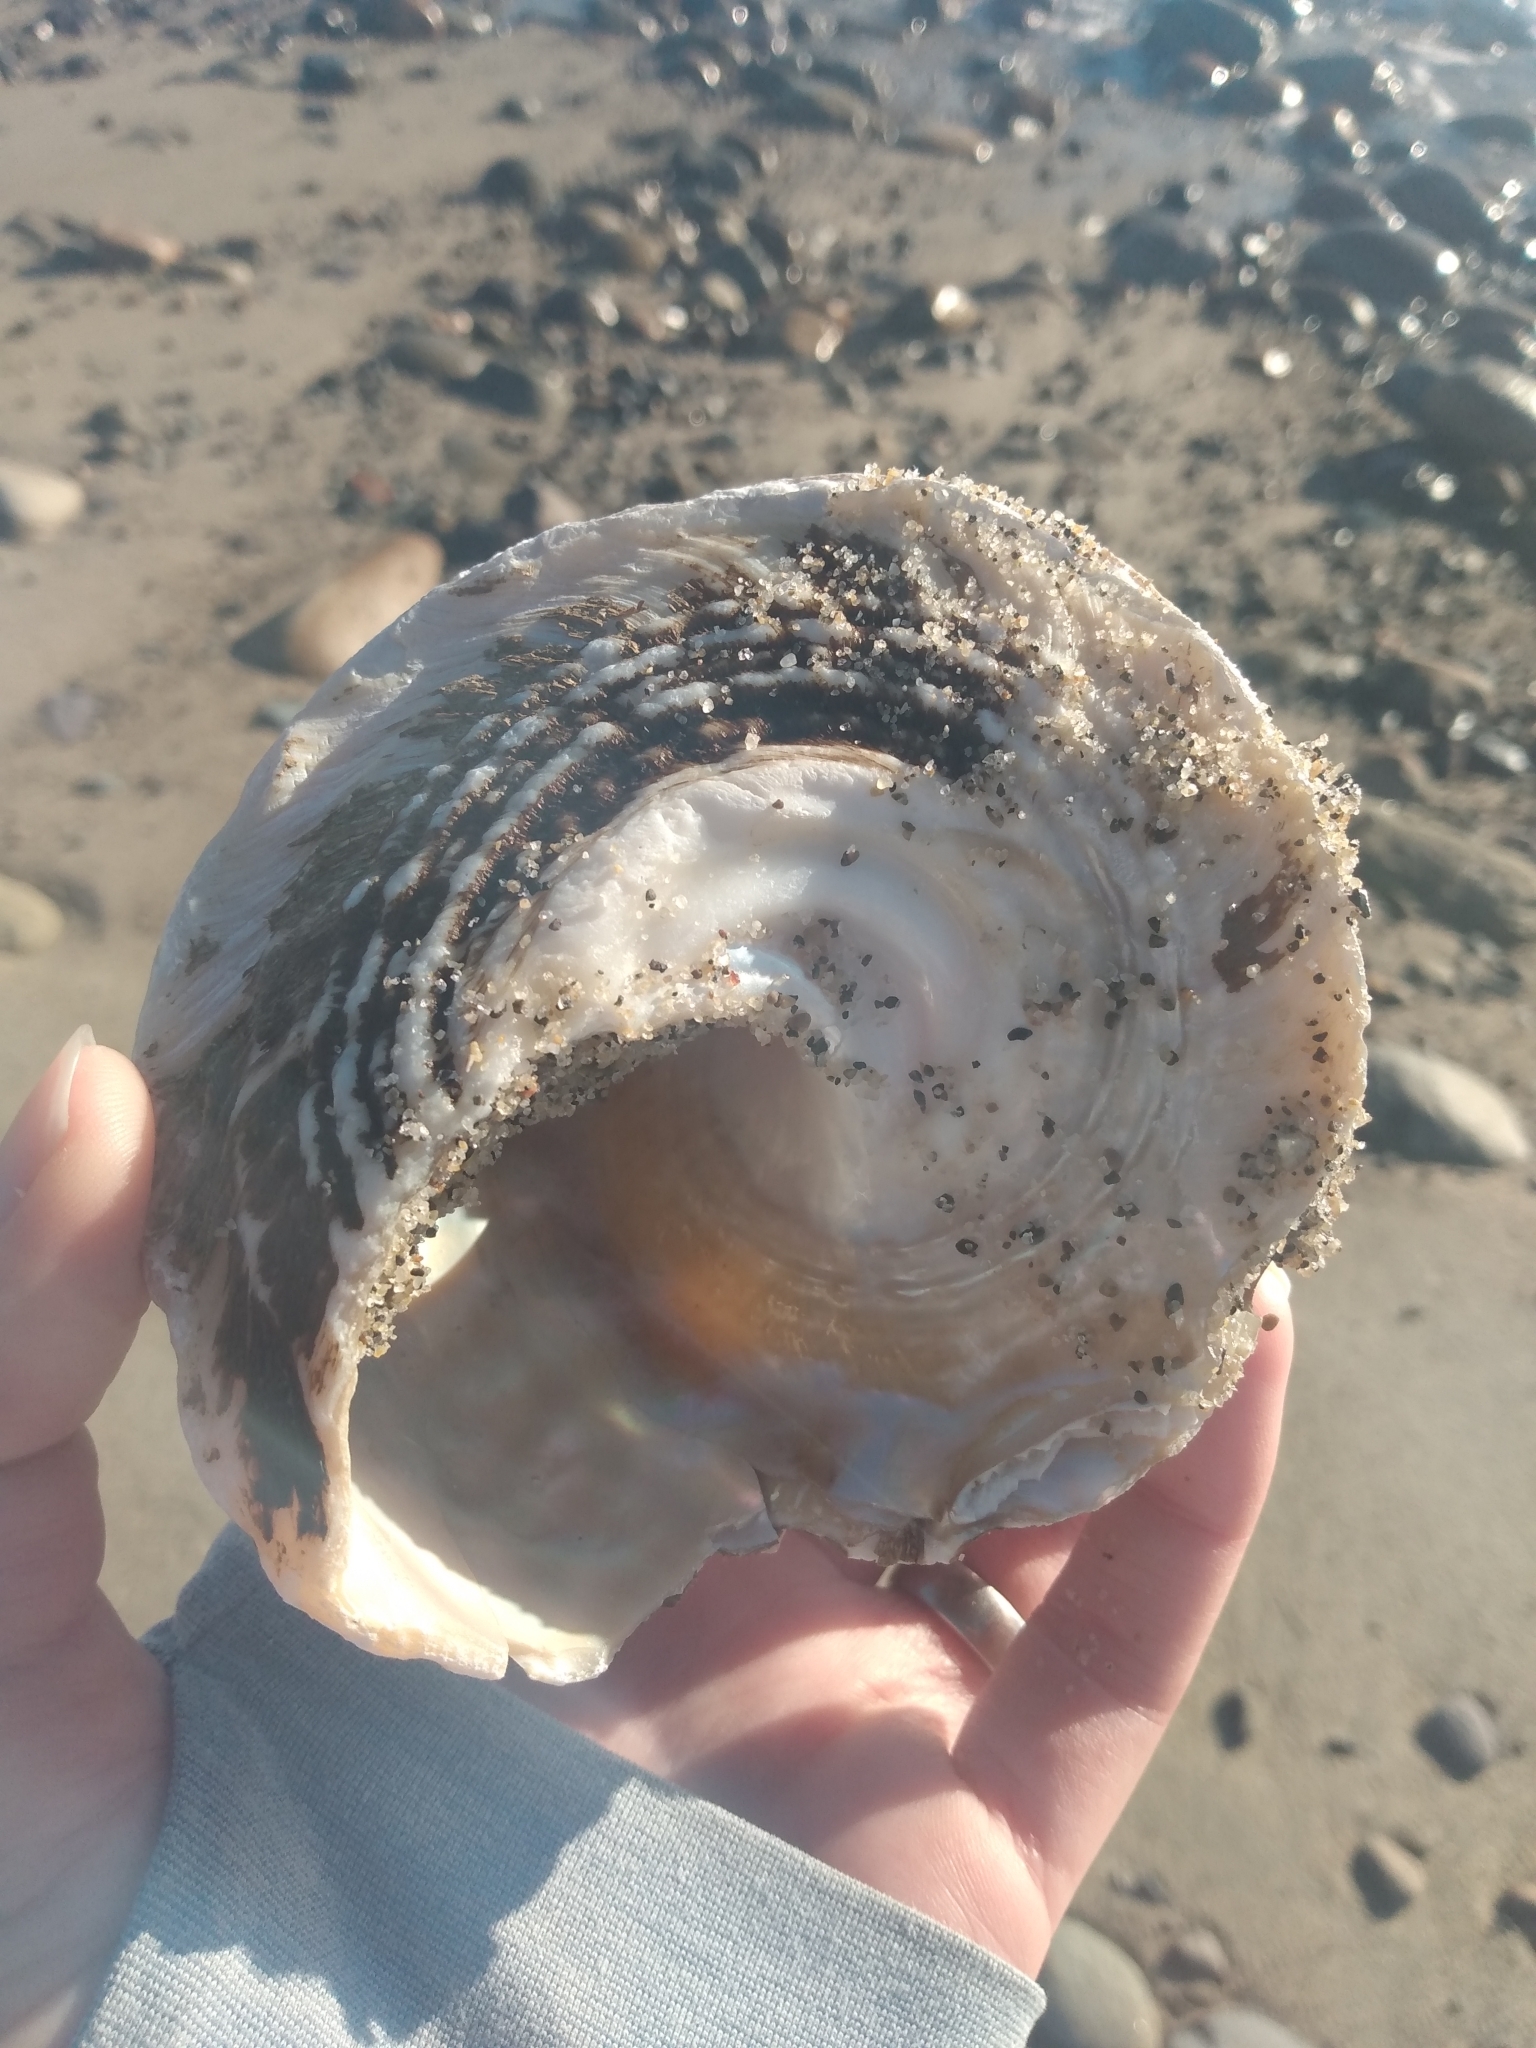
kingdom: Animalia
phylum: Mollusca
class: Gastropoda
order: Trochida
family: Turbinidae
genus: Megastraea
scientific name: Megastraea undosa
